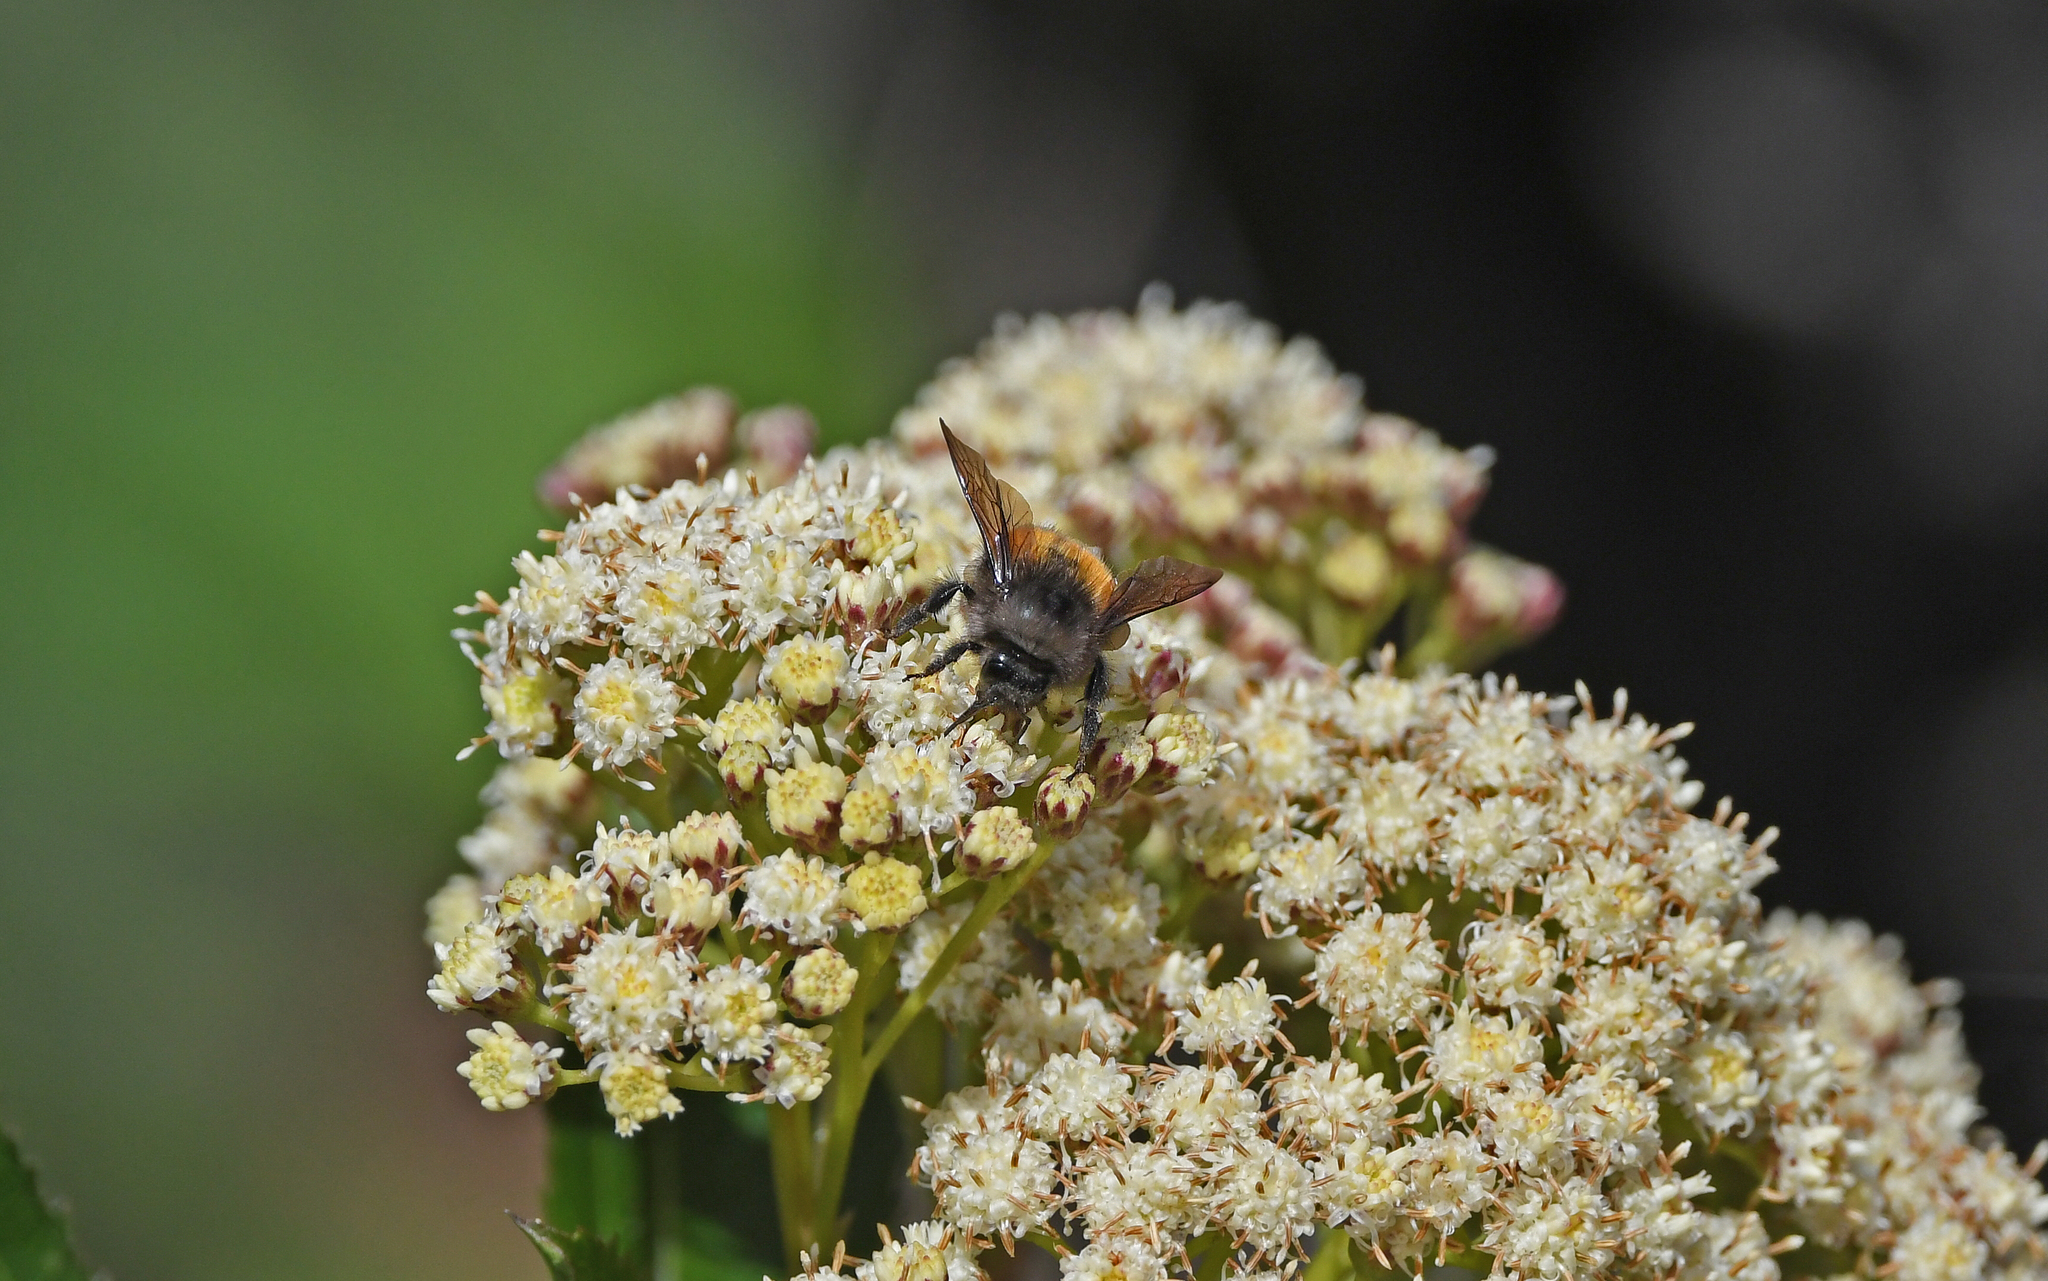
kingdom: Animalia
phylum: Arthropoda
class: Insecta
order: Hymenoptera
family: Apidae
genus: Bombus
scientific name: Bombus butteli
